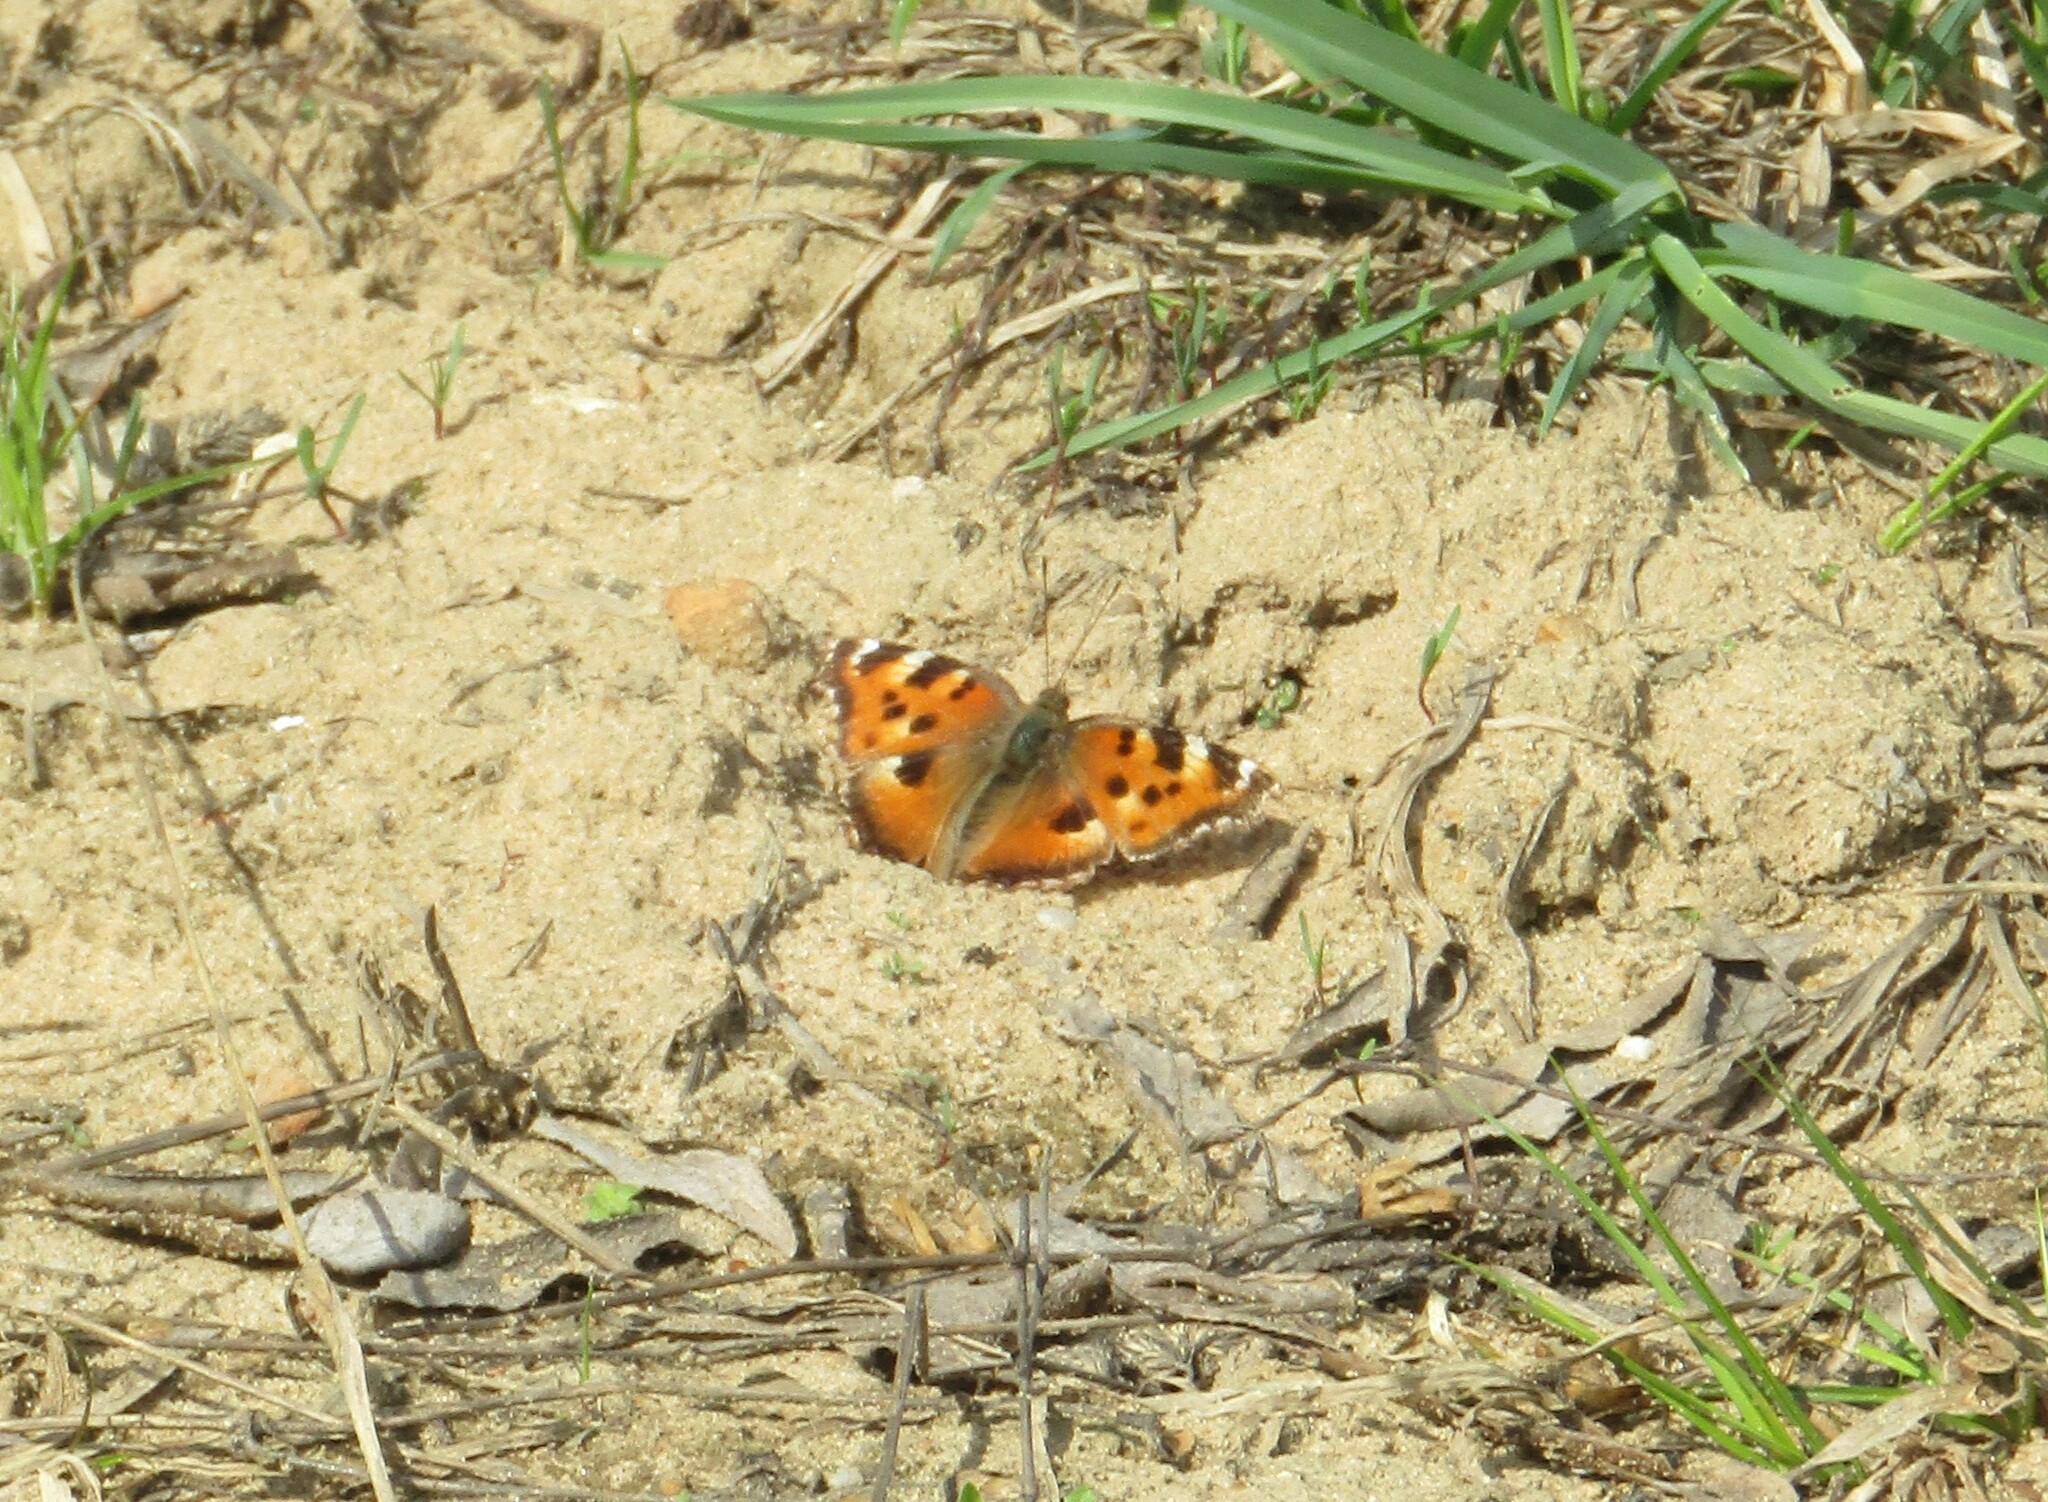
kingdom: Animalia
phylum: Arthropoda
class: Insecta
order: Lepidoptera
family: Nymphalidae
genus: Nymphalis
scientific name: Nymphalis xanthomelas
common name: Scarce tortoiseshell
